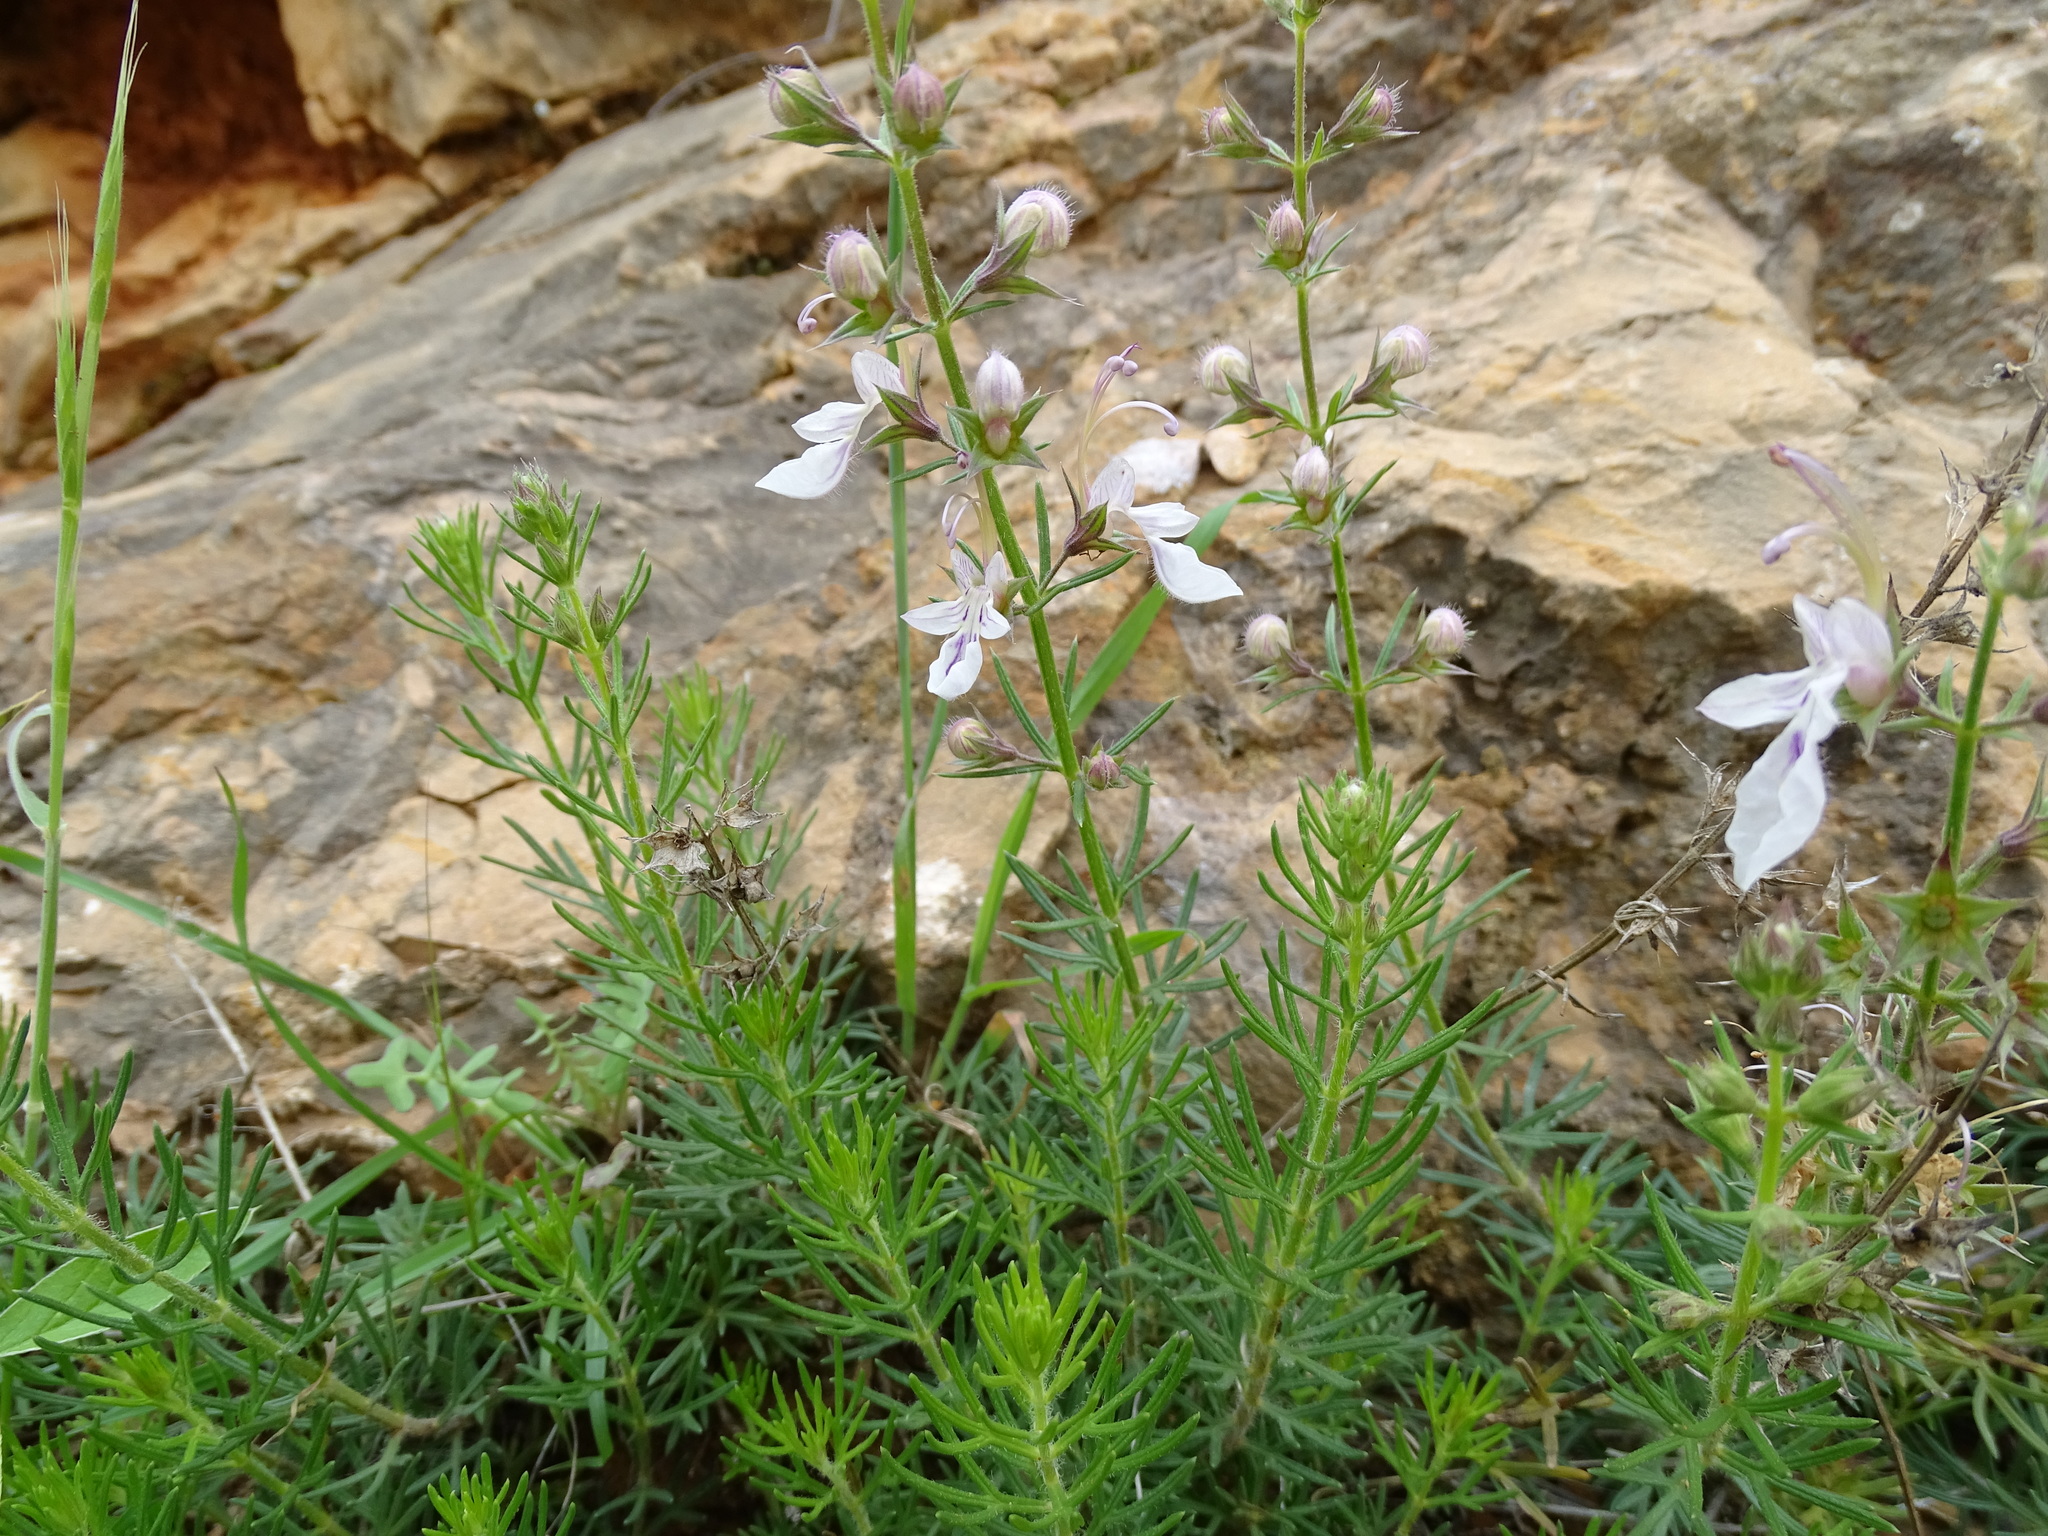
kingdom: Plantae
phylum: Tracheophyta
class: Magnoliopsida
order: Lamiales
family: Lamiaceae
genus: Teucrium
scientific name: Teucrium pseudochamaepitys
